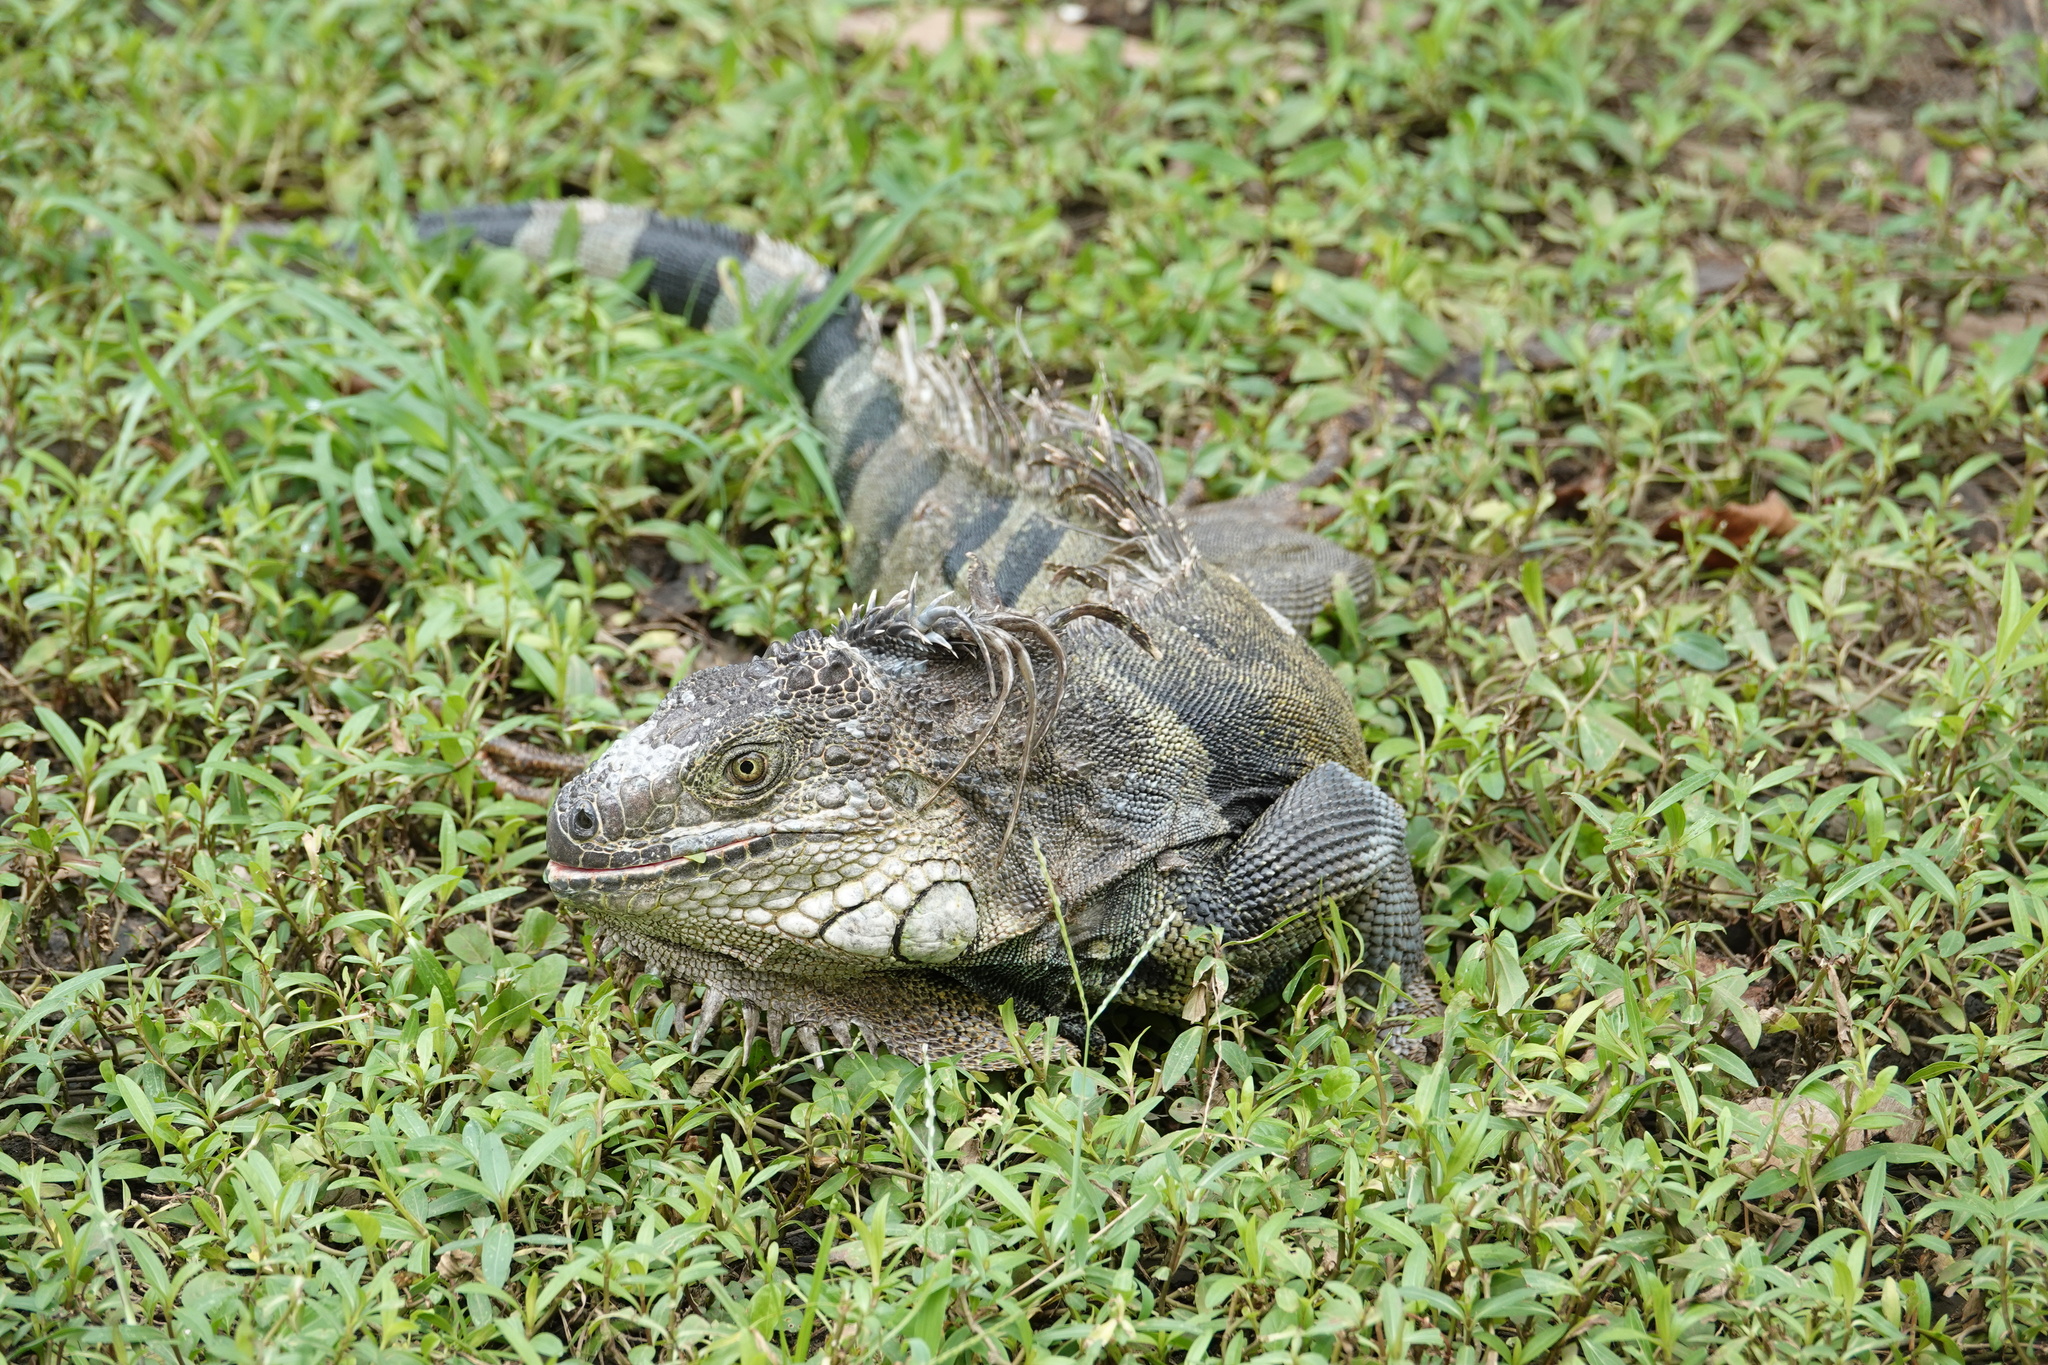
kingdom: Animalia
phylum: Chordata
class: Squamata
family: Iguanidae
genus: Iguana
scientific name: Iguana iguana
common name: Green iguana
